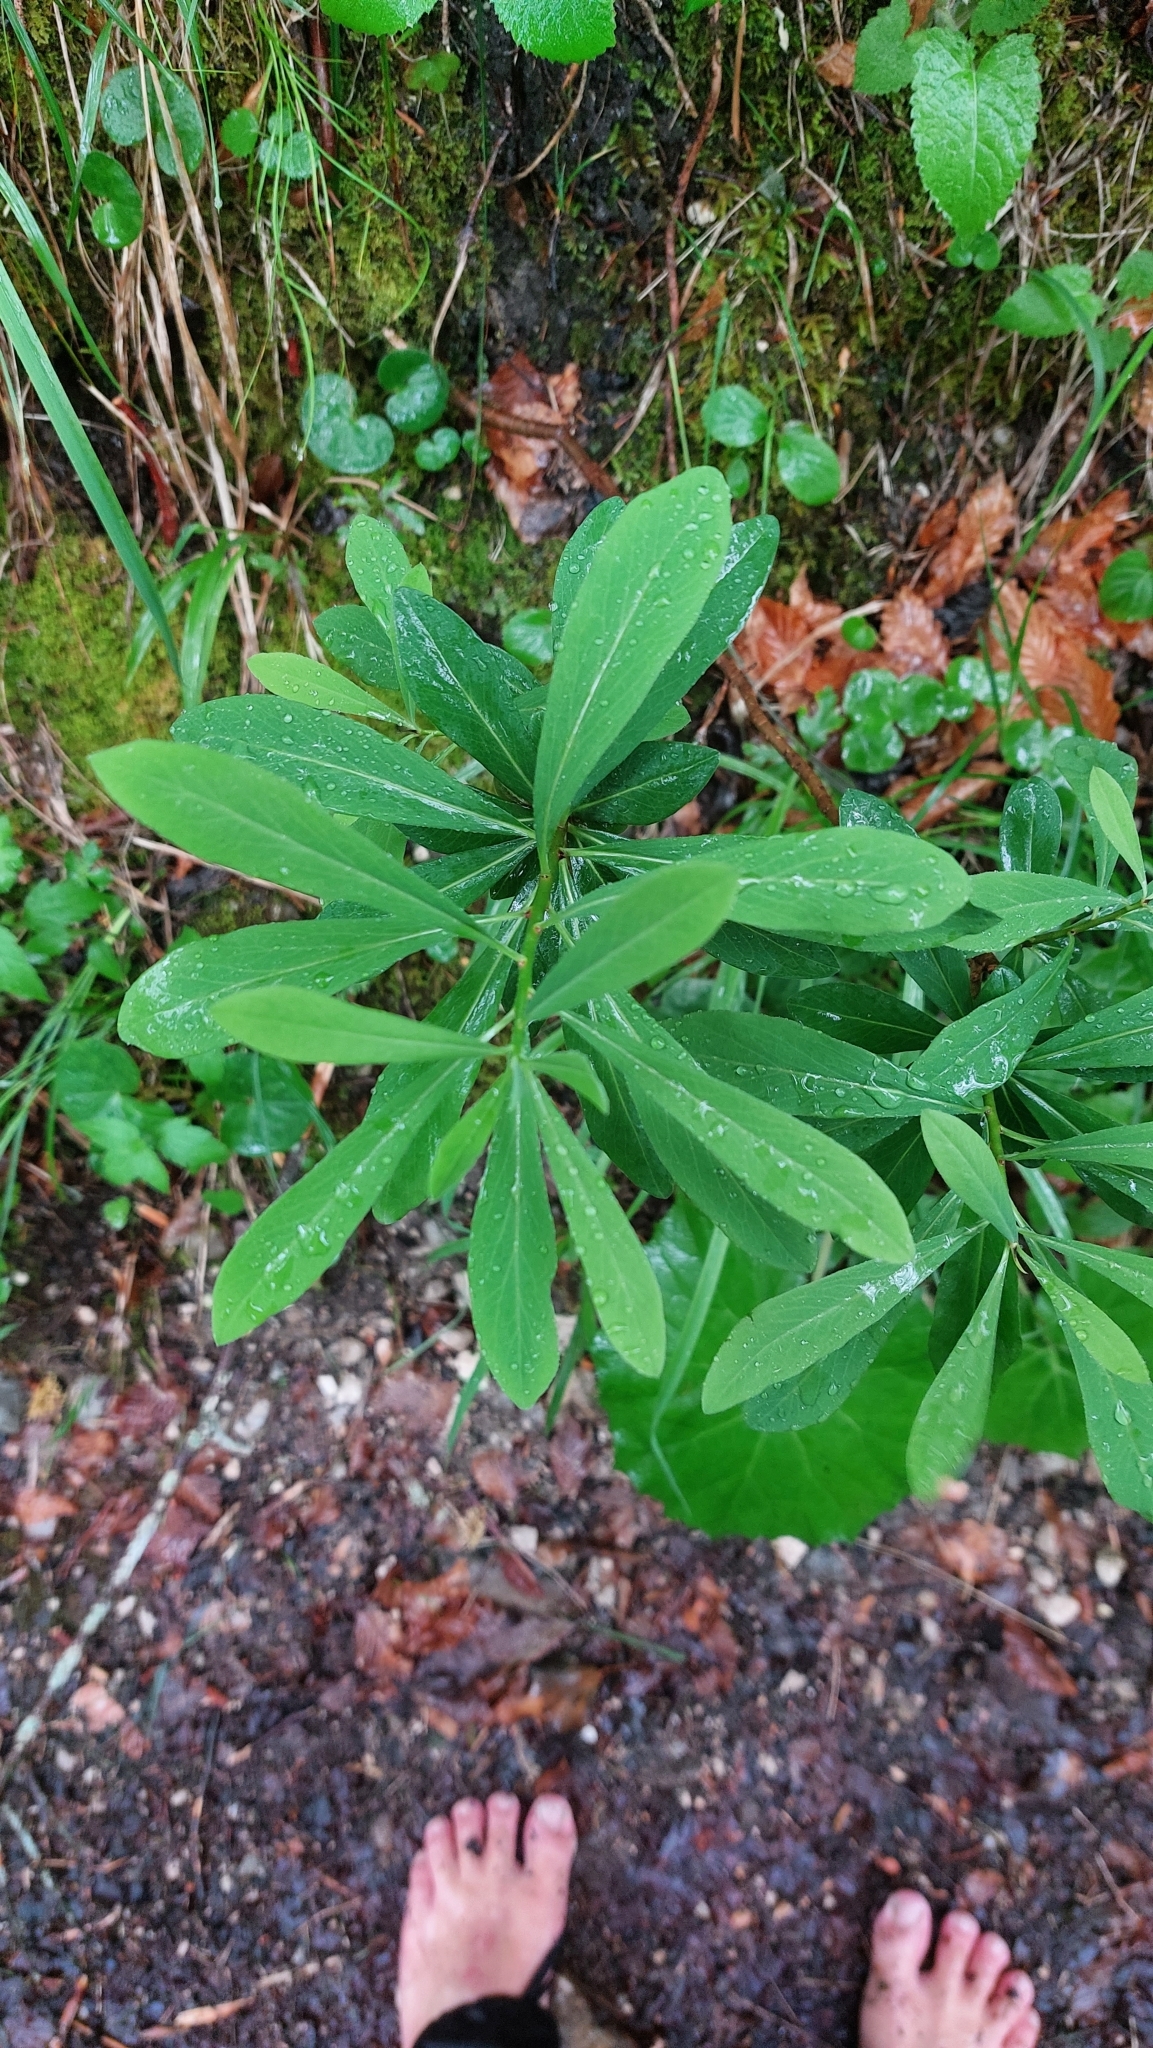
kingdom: Plantae
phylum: Tracheophyta
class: Magnoliopsida
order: Malvales
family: Thymelaeaceae
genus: Daphne
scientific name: Daphne mezereum
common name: Mezereon
